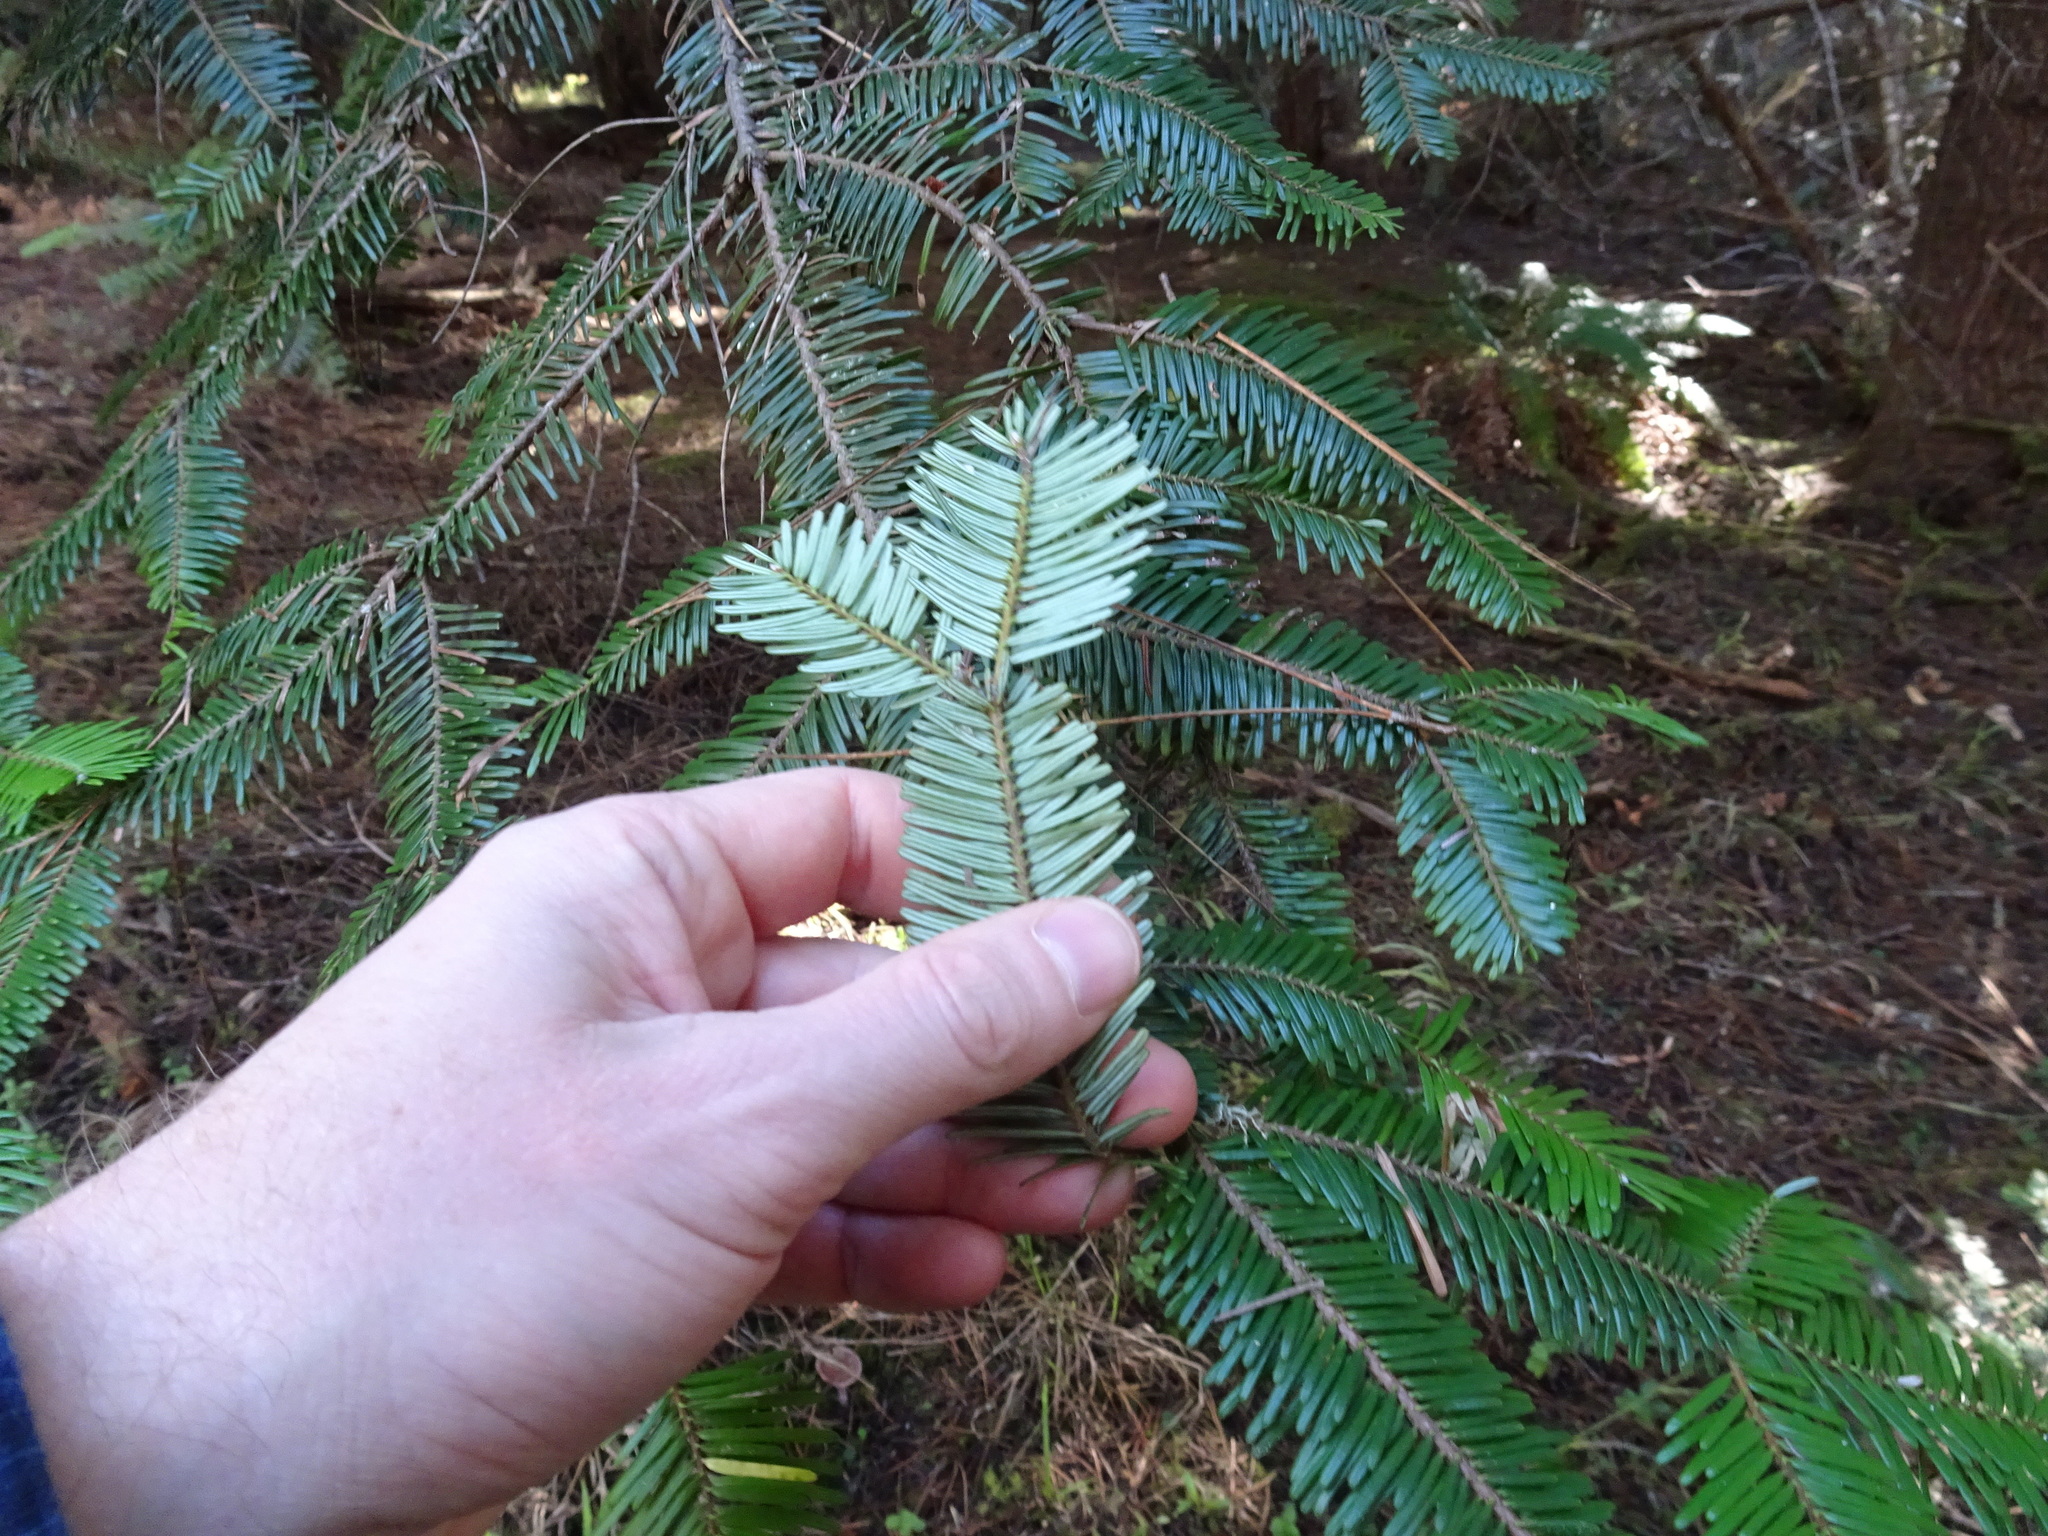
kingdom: Plantae
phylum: Tracheophyta
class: Pinopsida
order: Pinales
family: Pinaceae
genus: Abies
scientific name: Abies grandis
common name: Giant fir
